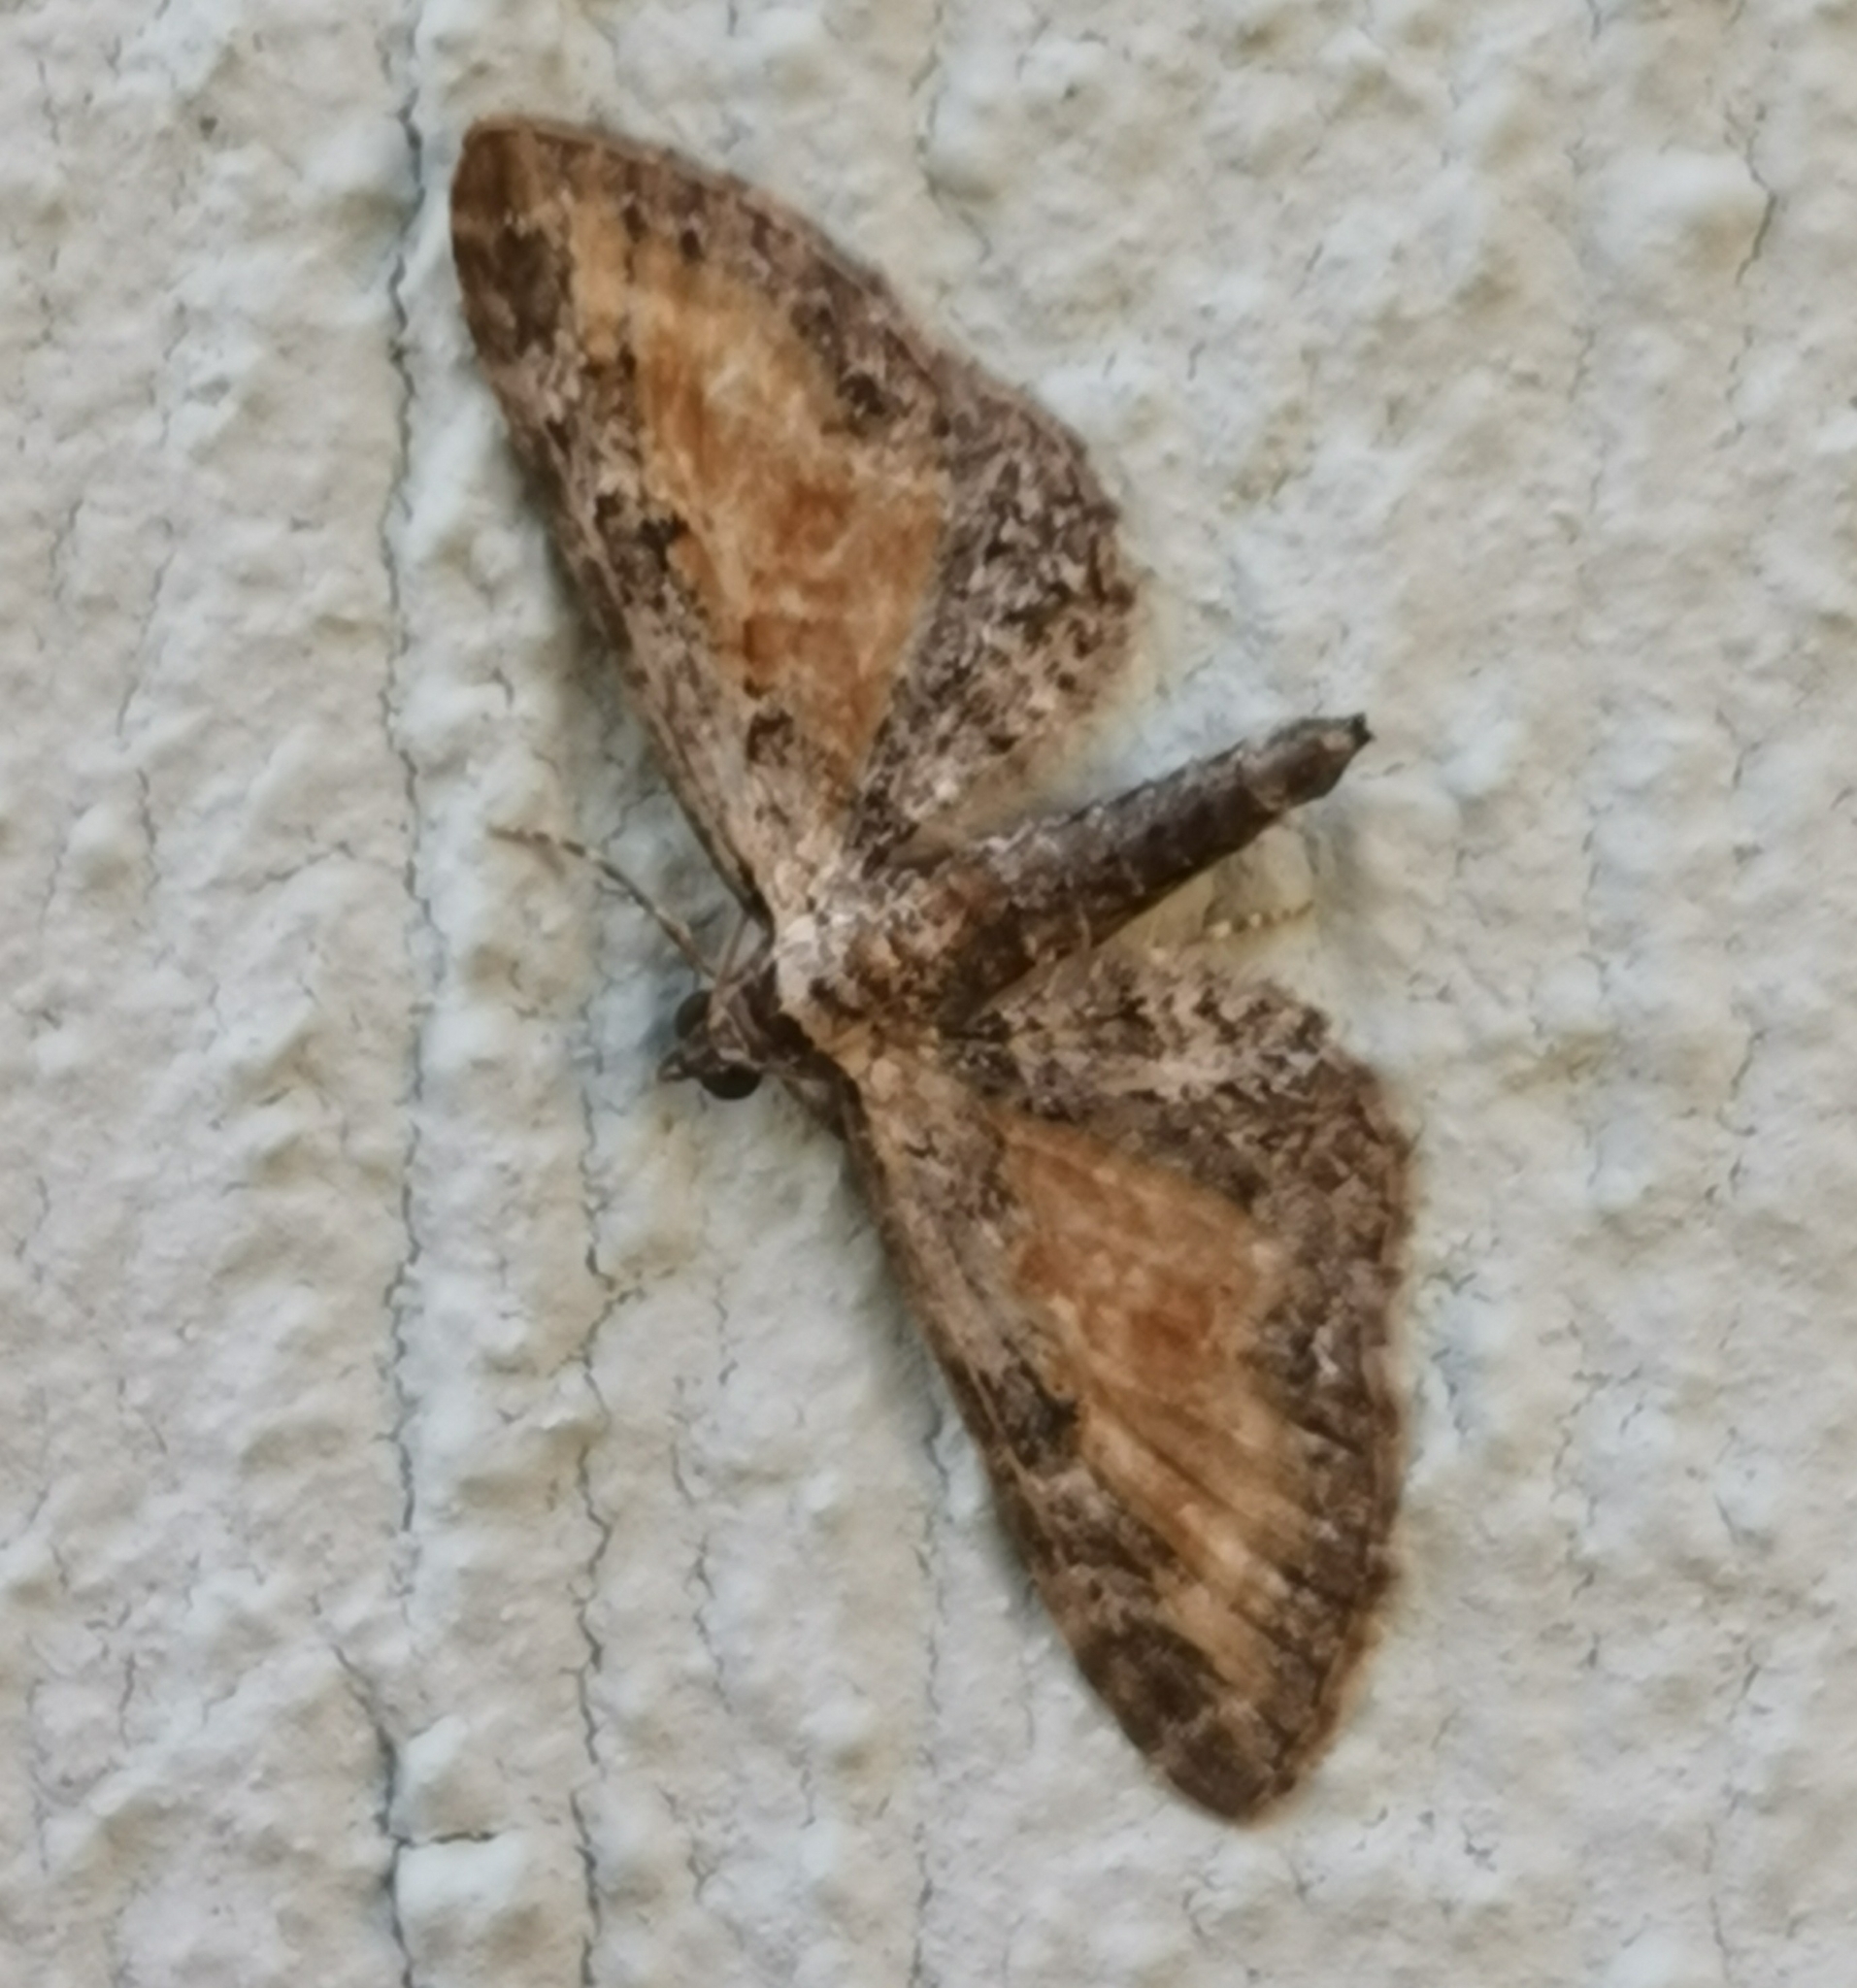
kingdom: Animalia
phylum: Arthropoda
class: Insecta
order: Lepidoptera
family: Geometridae
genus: Eupithecia
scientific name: Eupithecia icterata
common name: Tawny speckled pug
